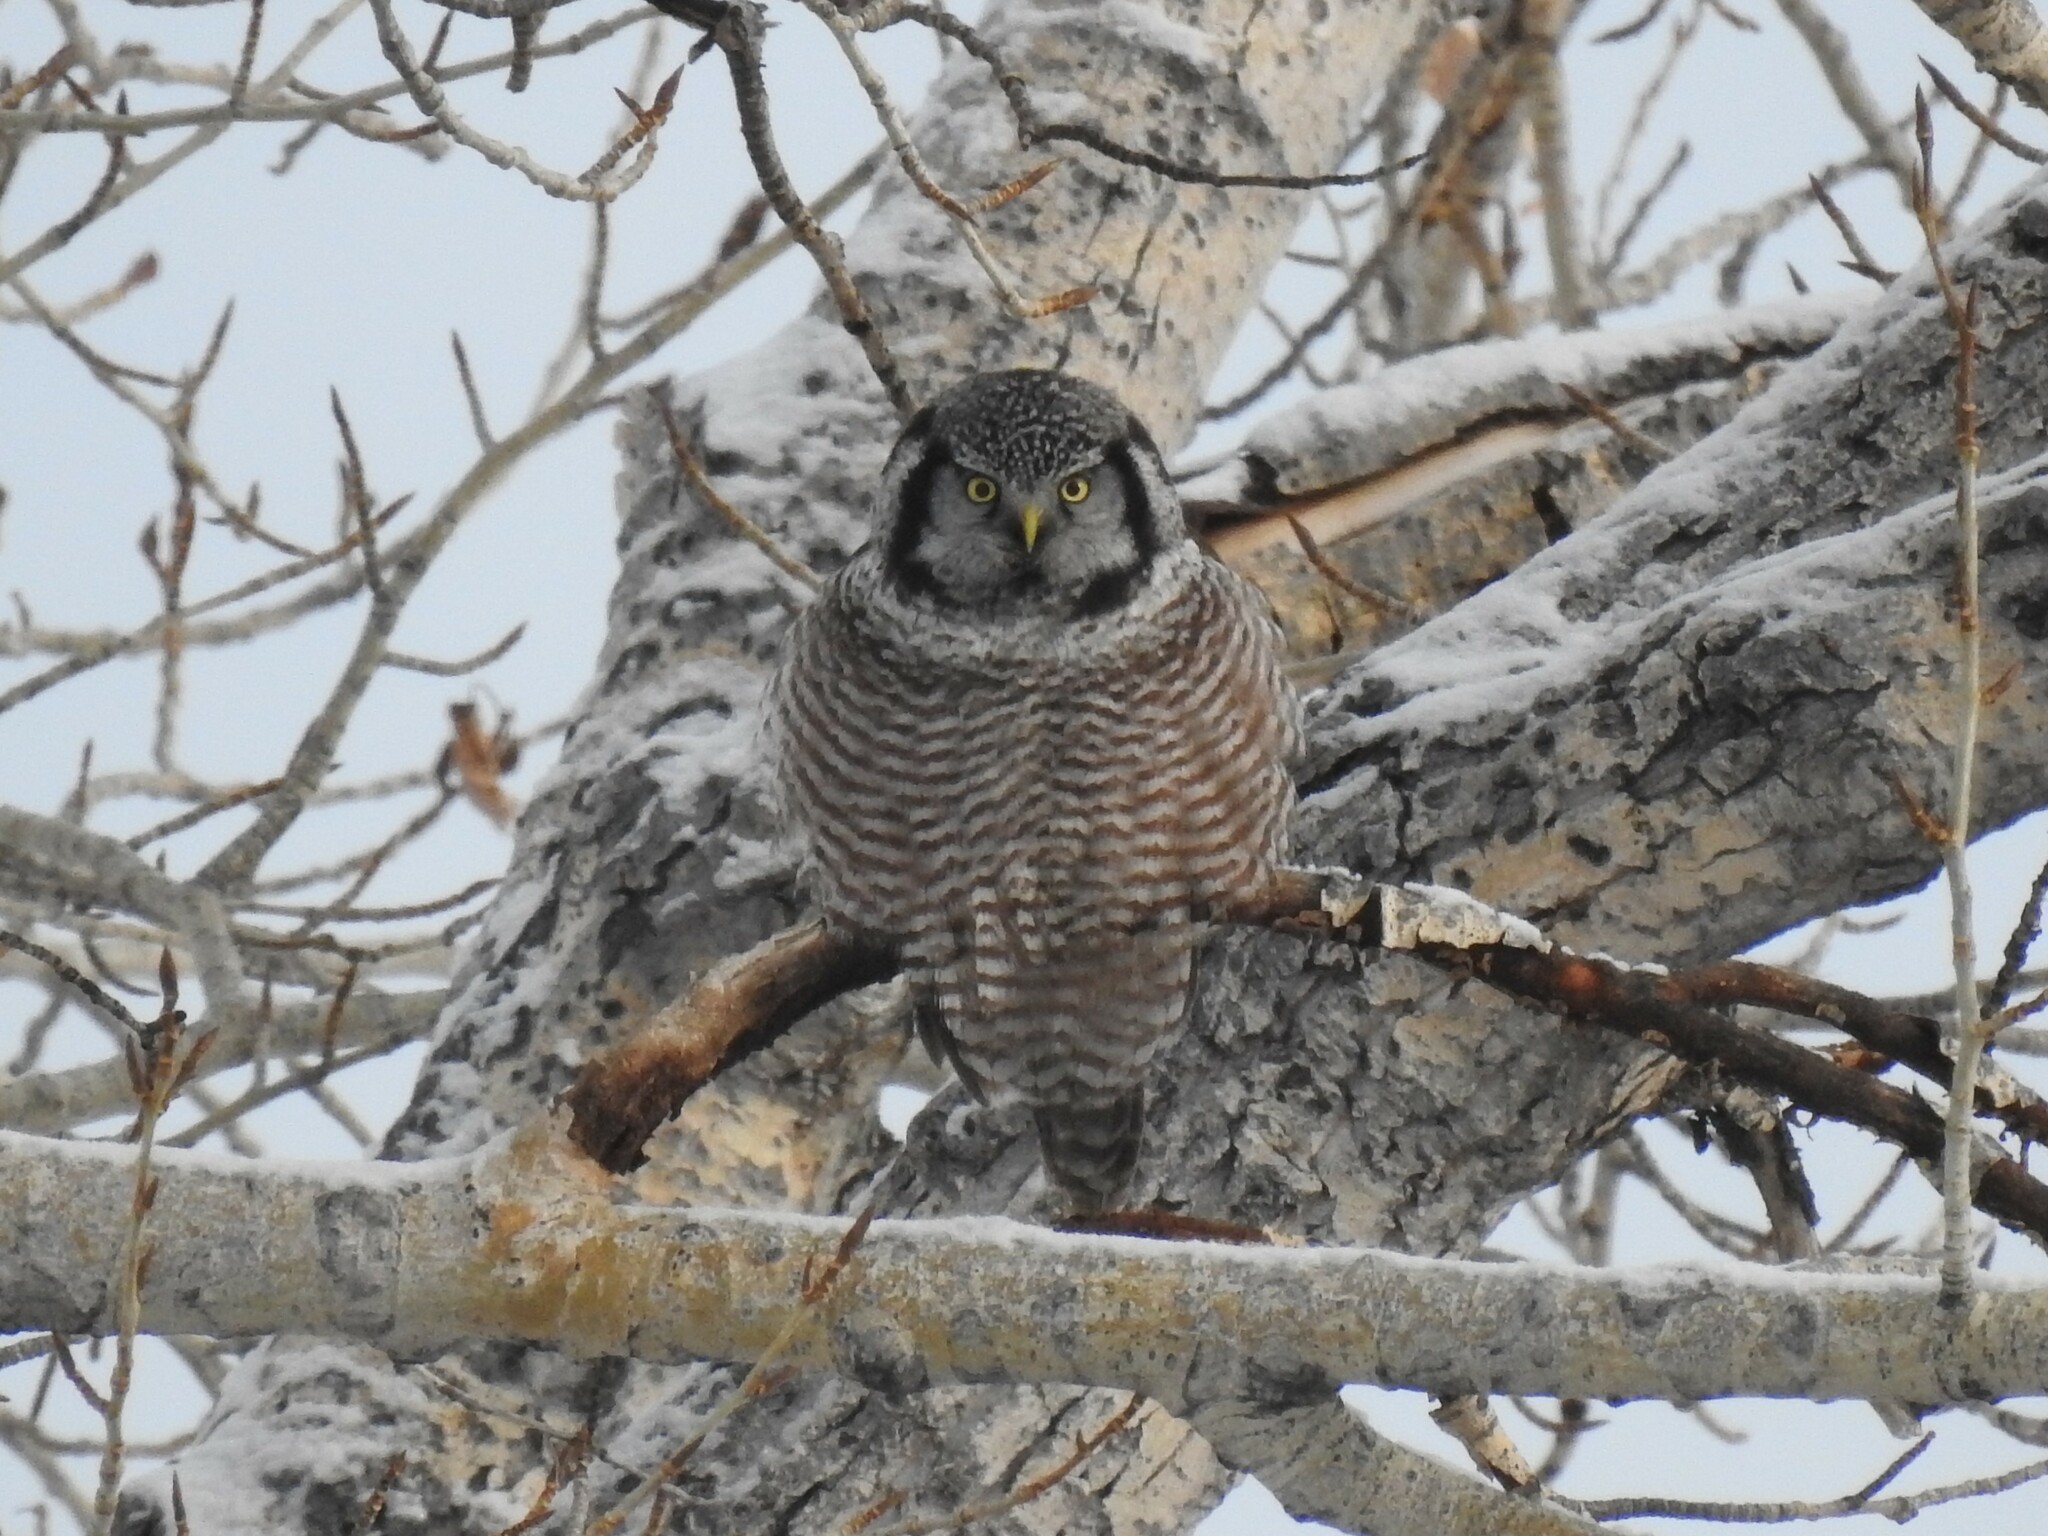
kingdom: Animalia
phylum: Chordata
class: Aves
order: Strigiformes
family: Strigidae
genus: Surnia
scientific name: Surnia ulula
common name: Northern hawk-owl
